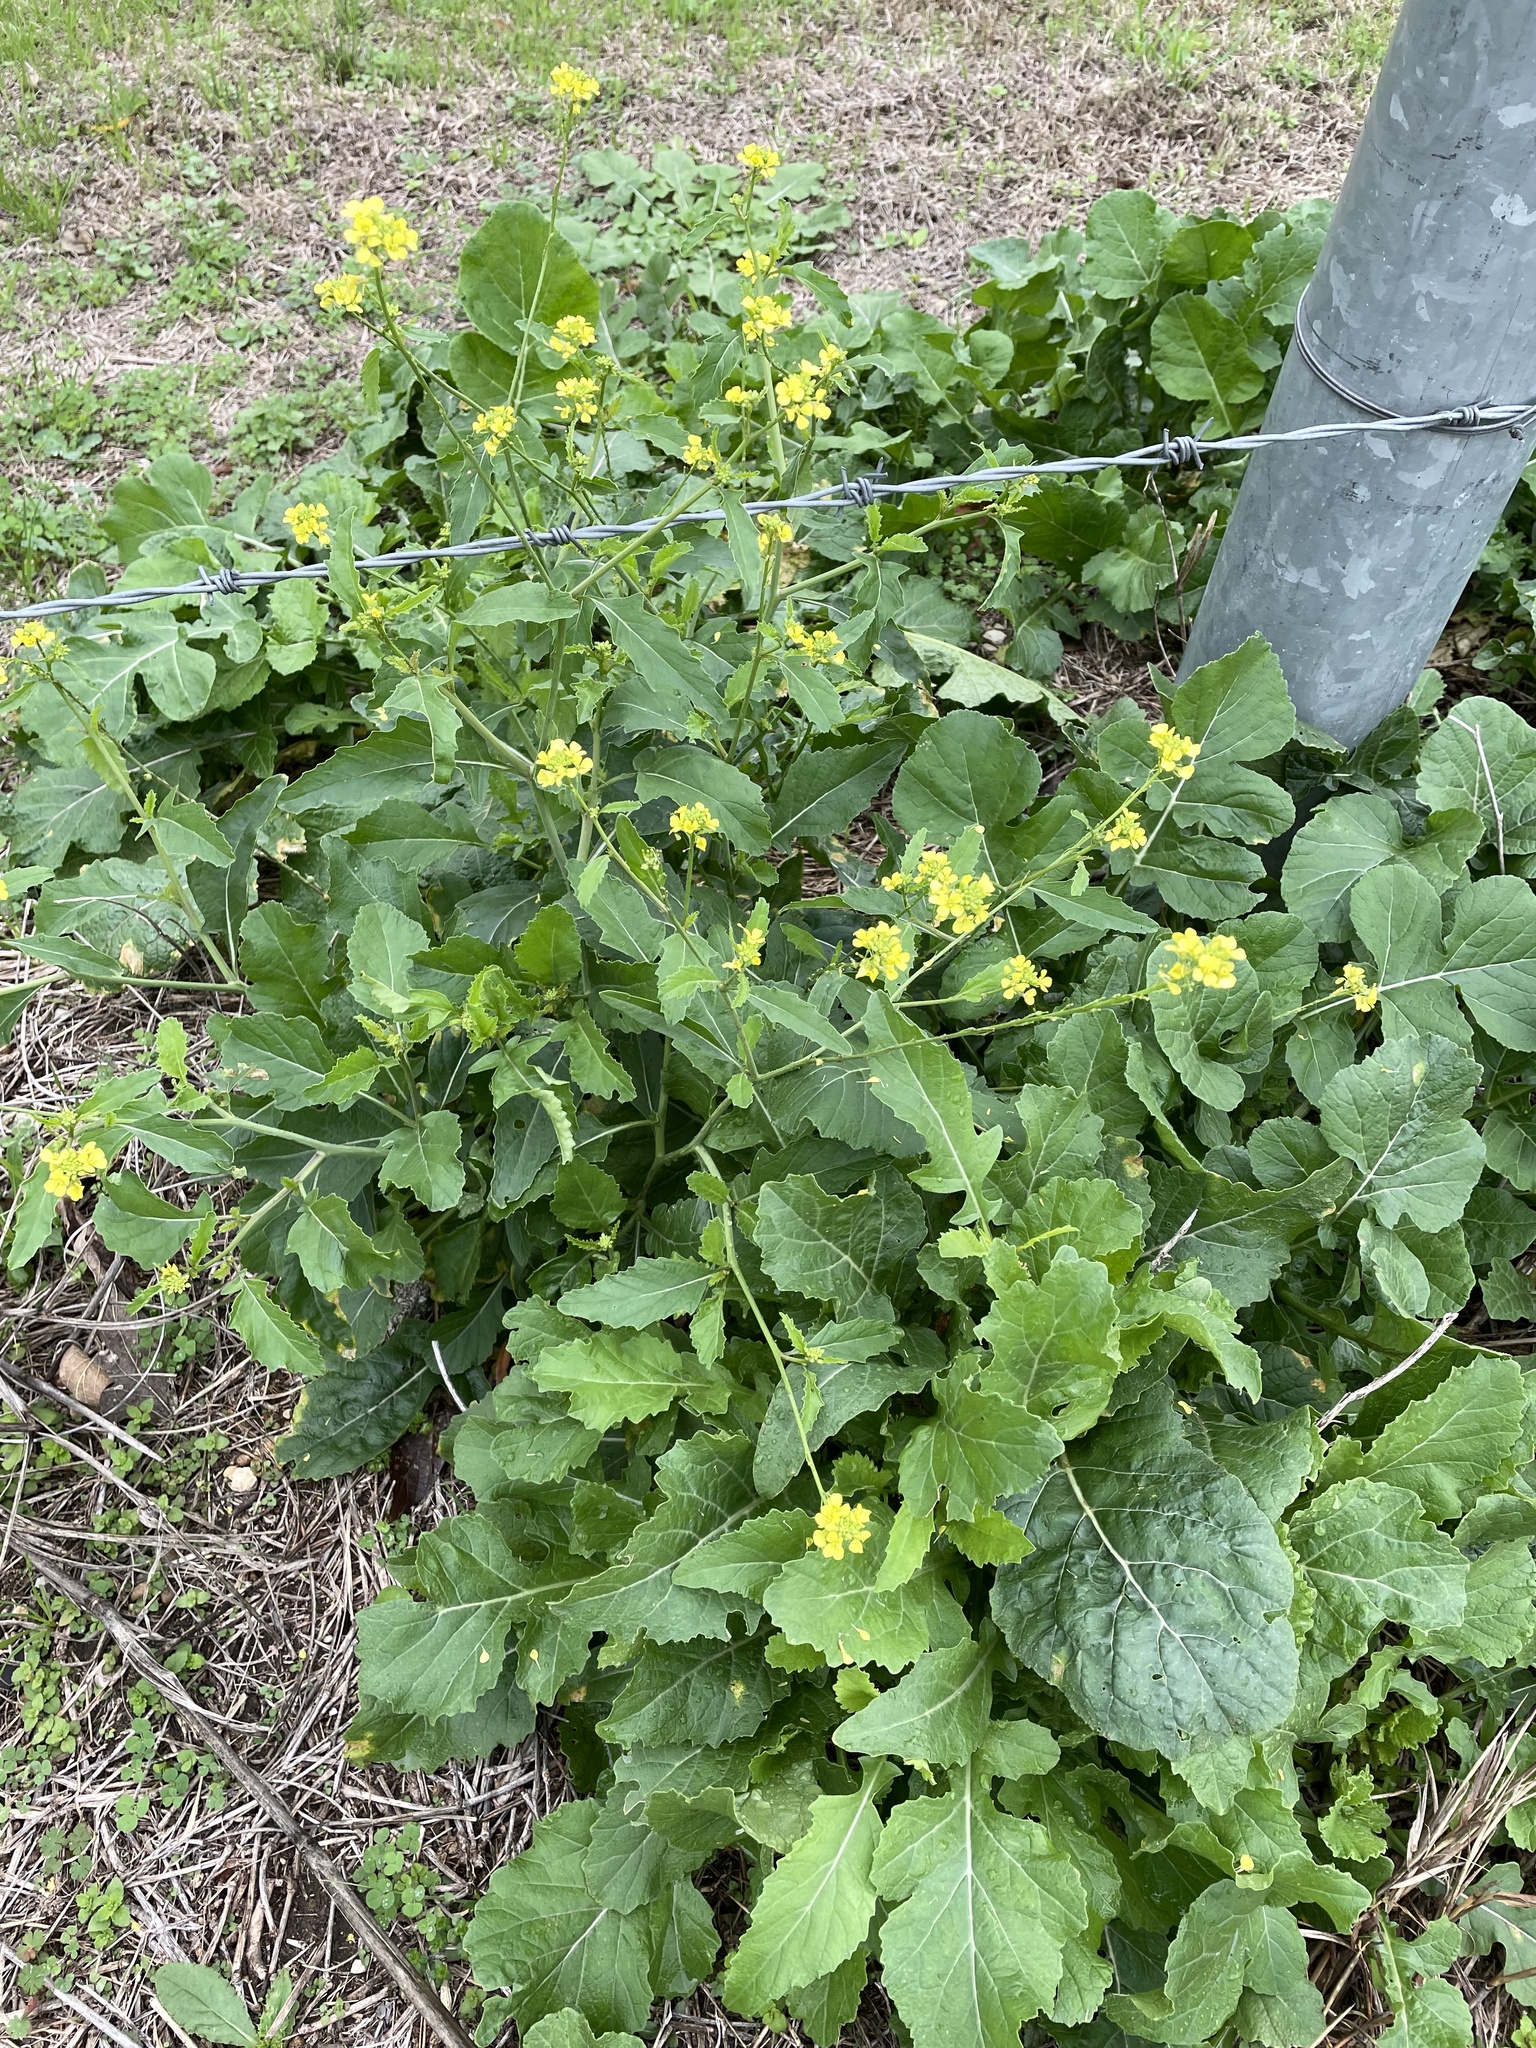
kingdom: Plantae
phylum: Tracheophyta
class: Magnoliopsida
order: Brassicales
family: Brassicaceae
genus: Rapistrum
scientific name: Rapistrum rugosum
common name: Annual bastardcabbage
